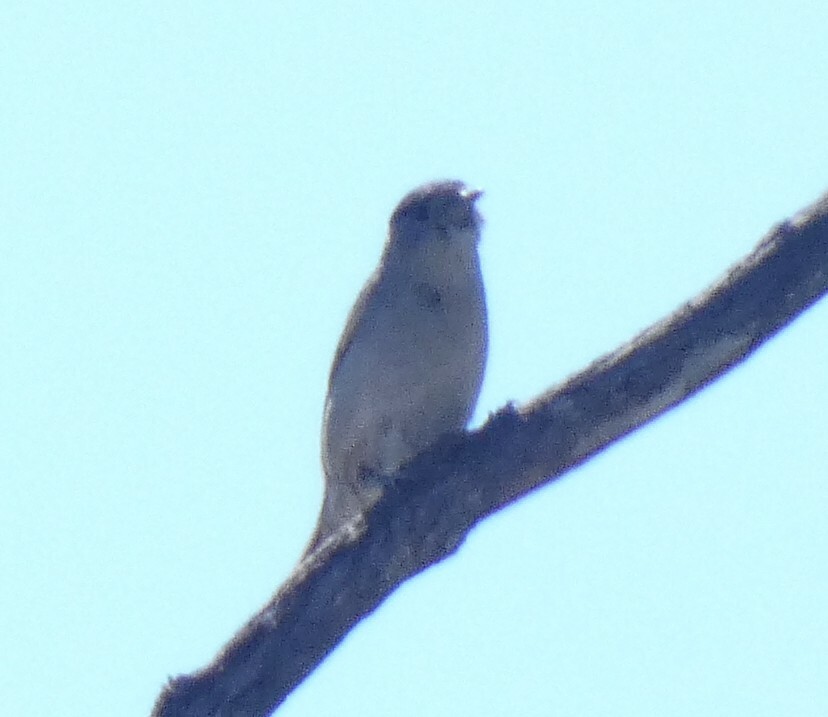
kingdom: Animalia
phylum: Chordata
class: Aves
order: Passeriformes
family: Sylviidae
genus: Sylvia
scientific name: Sylvia atricapilla
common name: Eurasian blackcap
